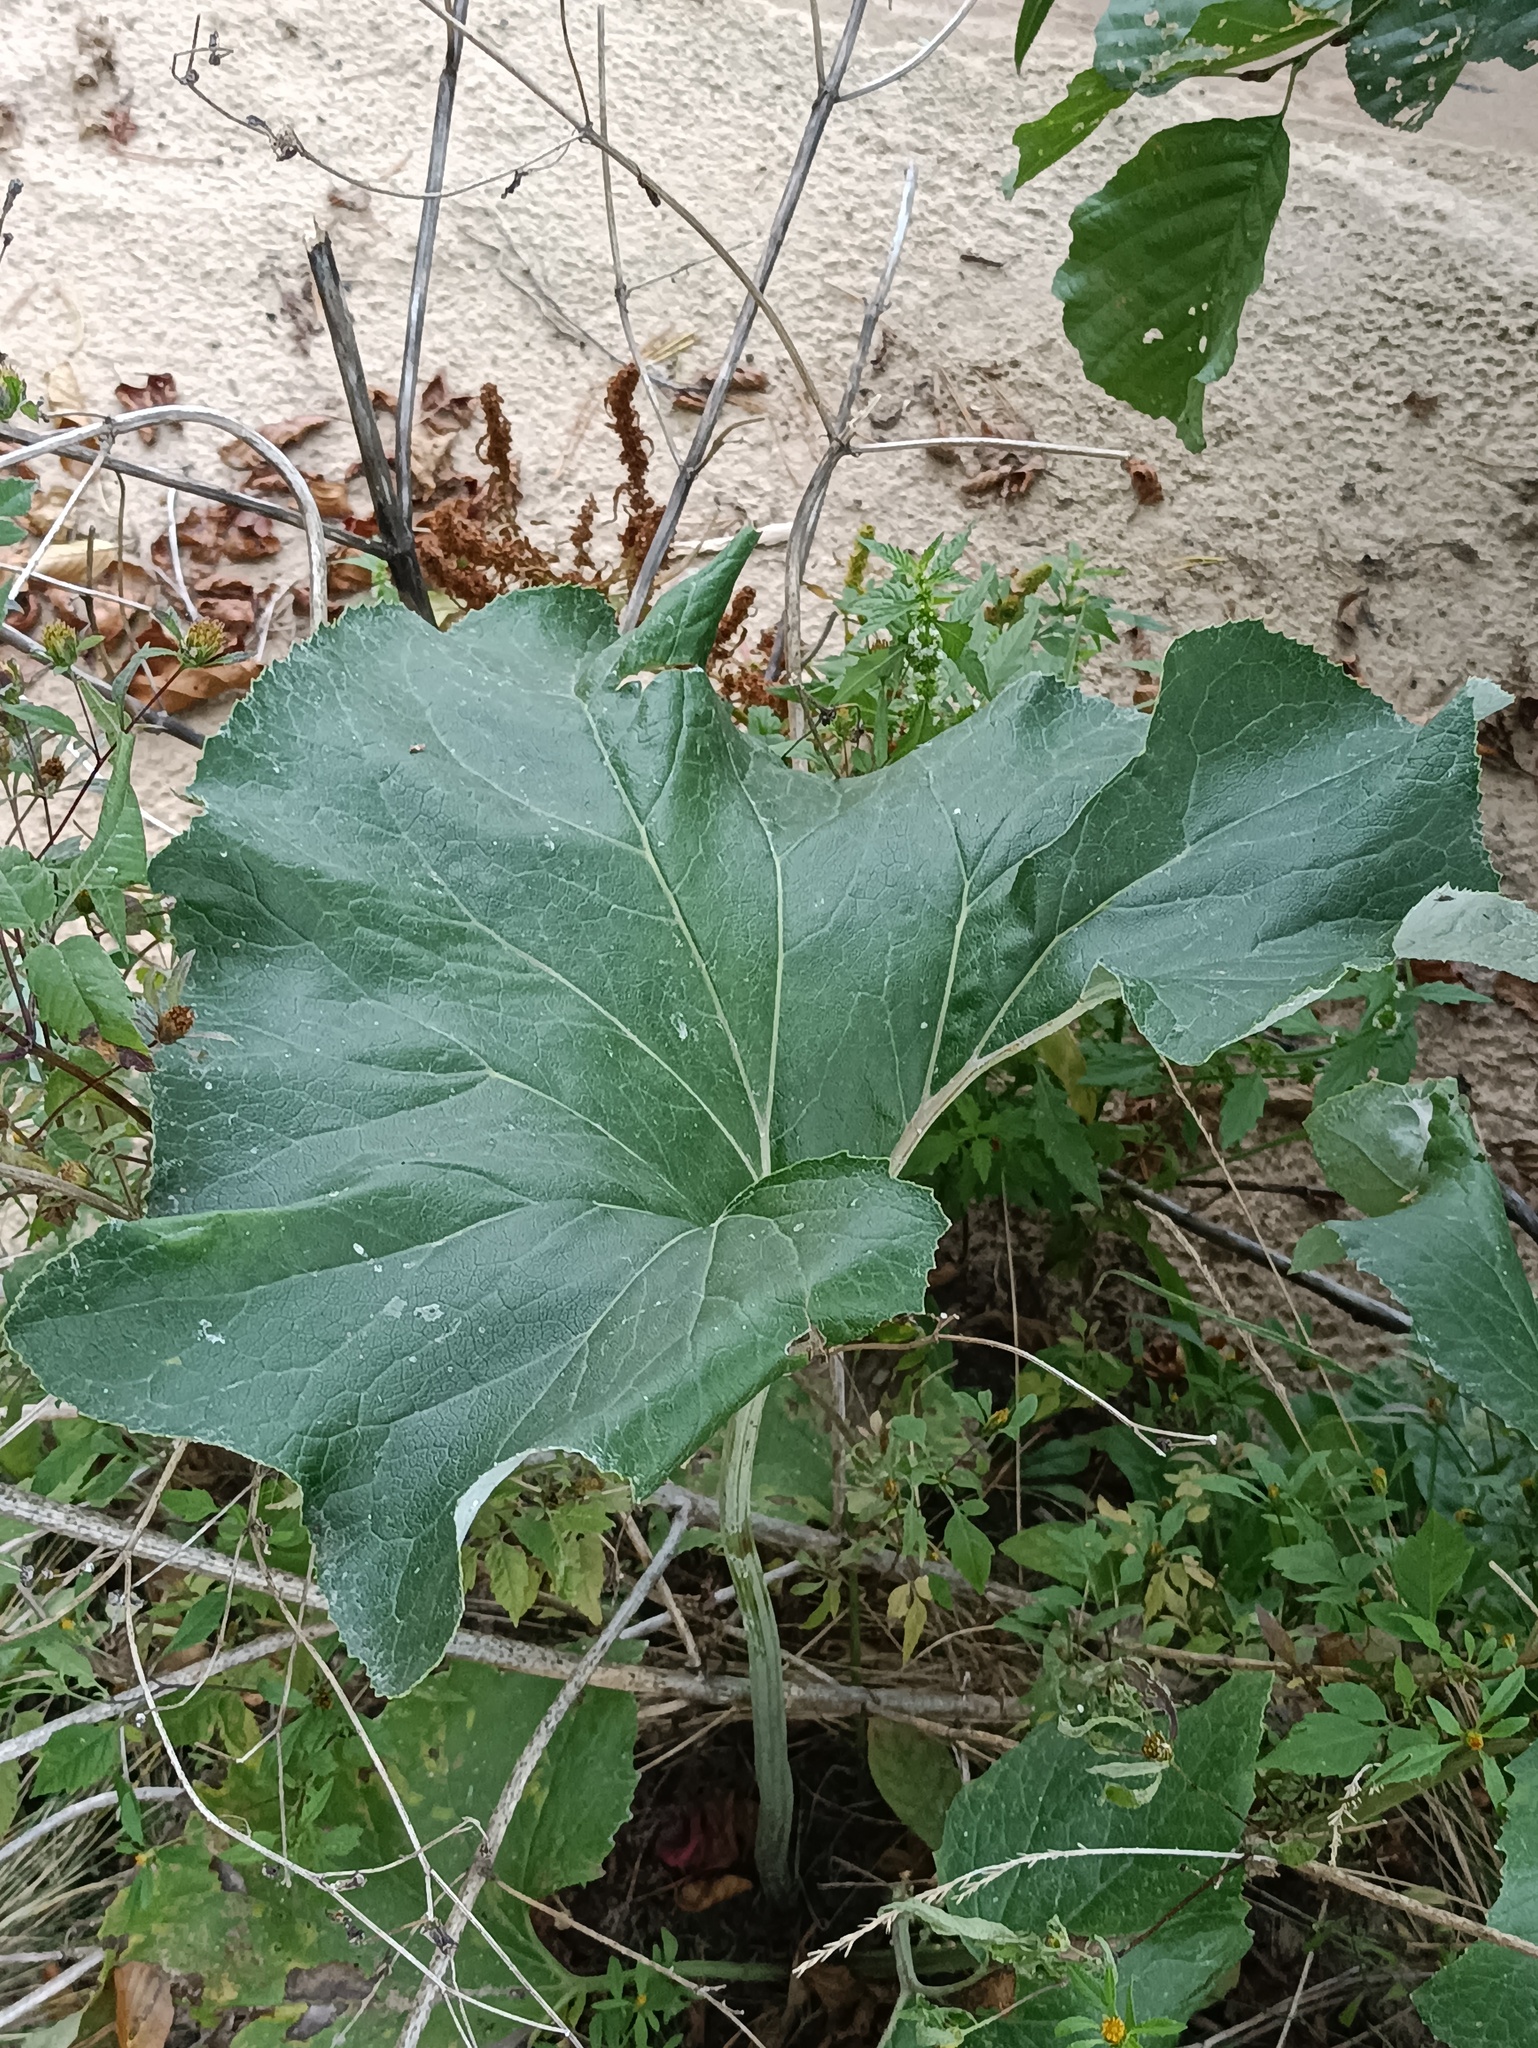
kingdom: Plantae
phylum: Tracheophyta
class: Magnoliopsida
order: Asterales
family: Asteraceae
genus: Petasites
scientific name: Petasites spurius
